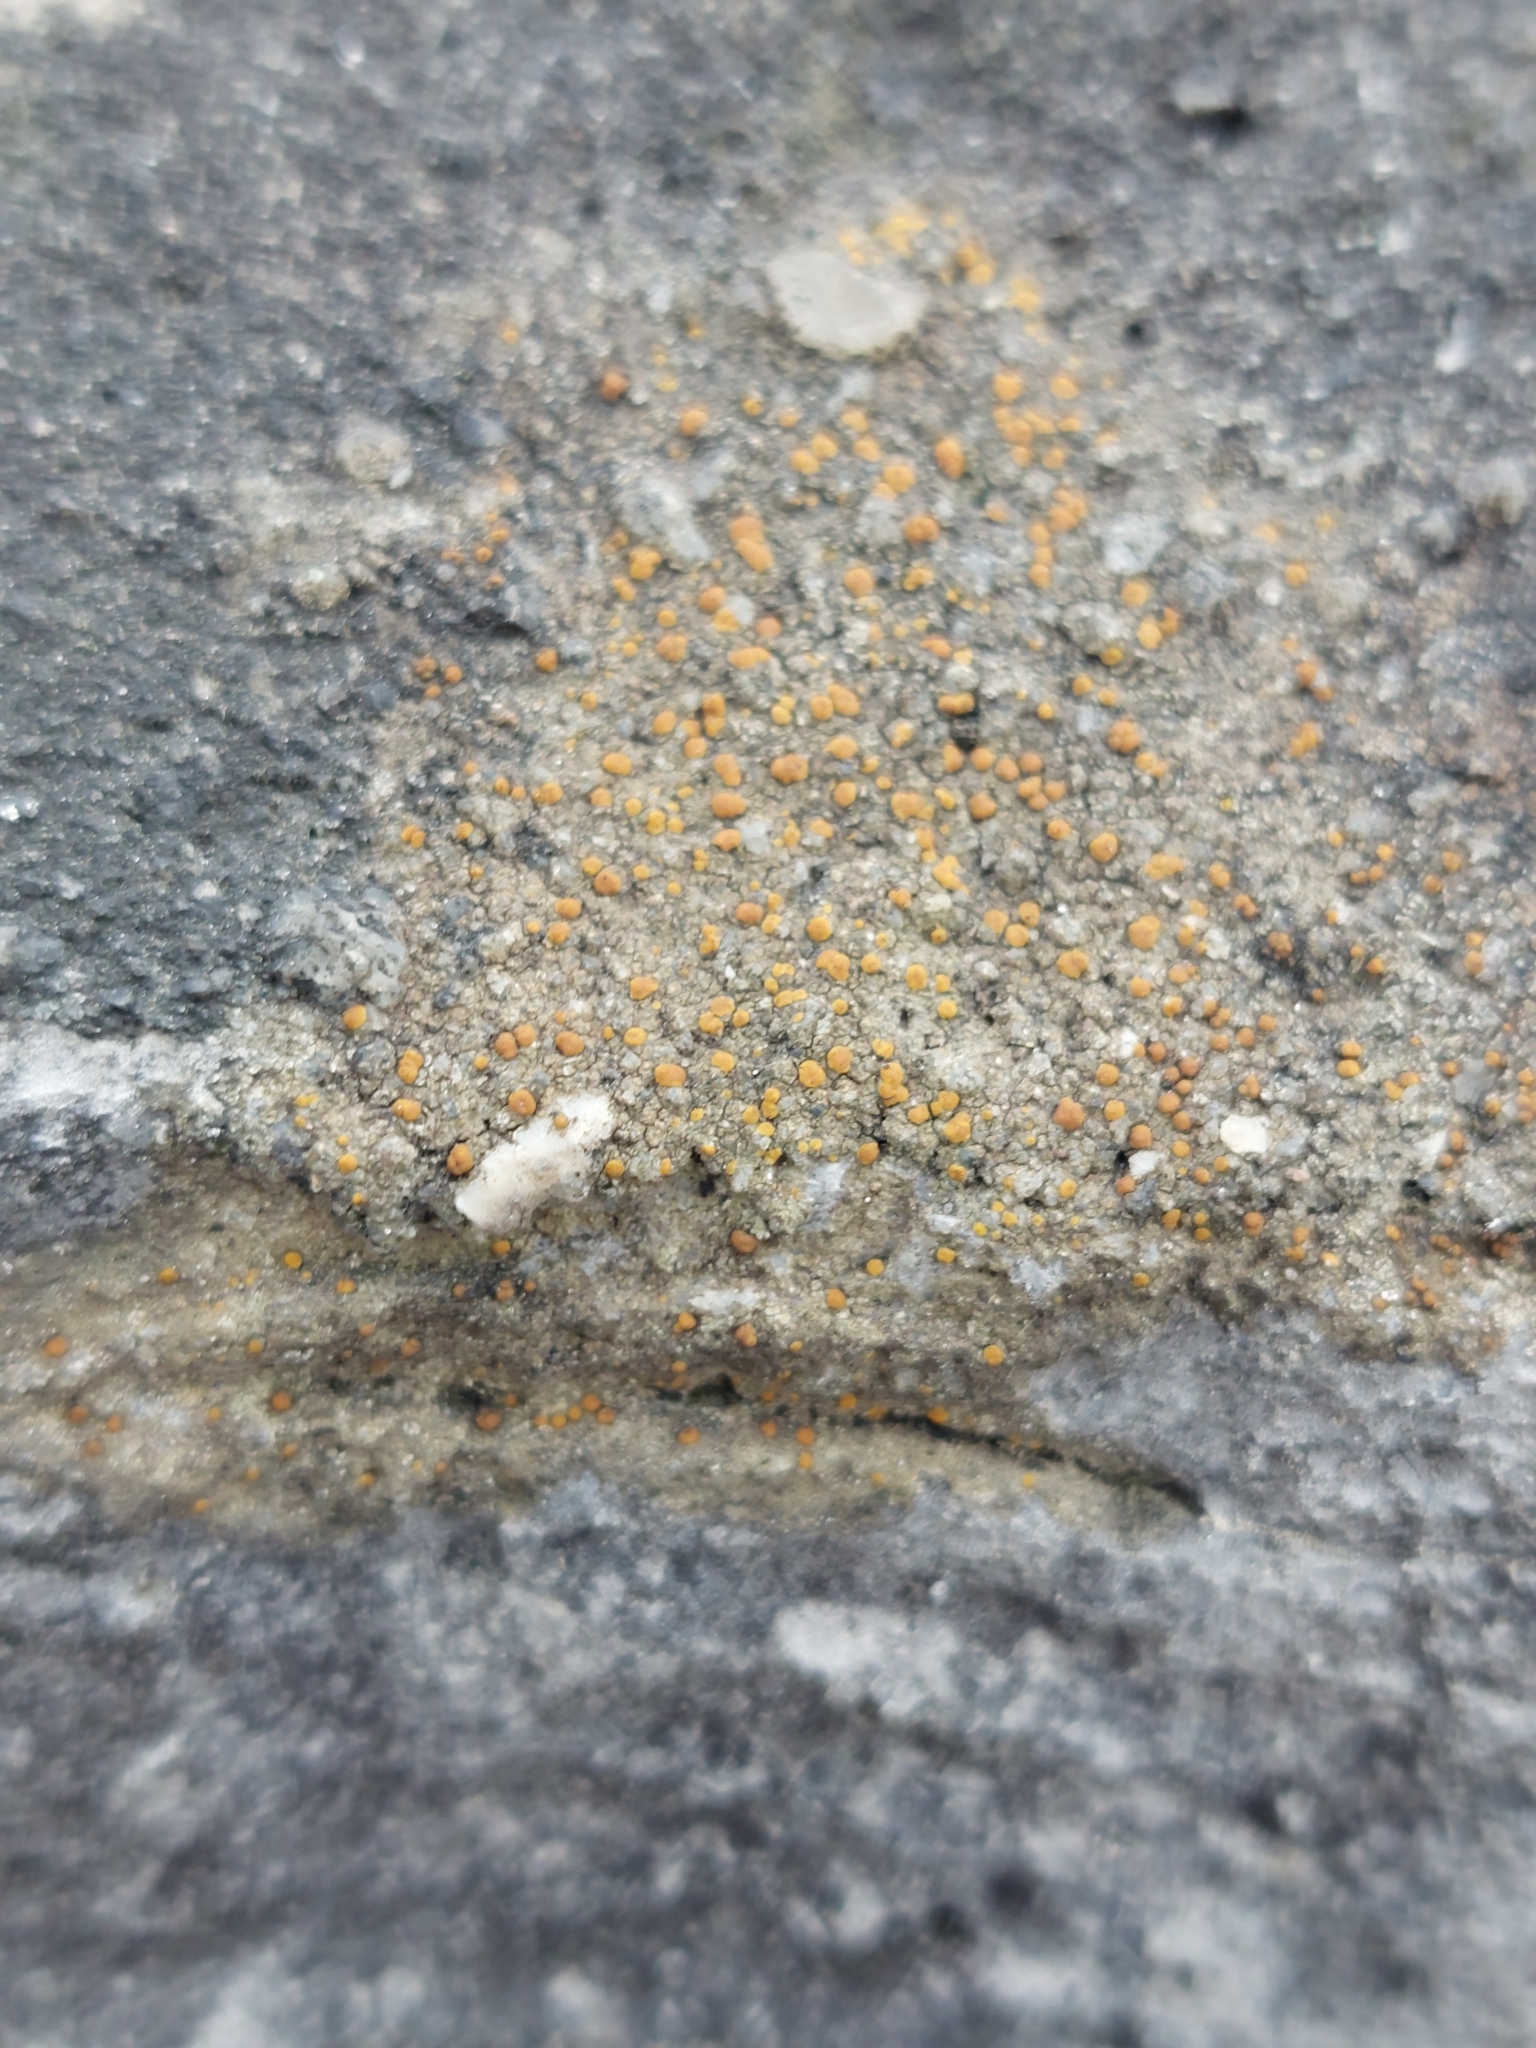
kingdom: Fungi
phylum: Ascomycota
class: Lecanoromycetes
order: Lecanorales
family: Psoraceae
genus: Protoblastenia
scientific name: Protoblastenia rupestris
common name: Chewing gum lichen
